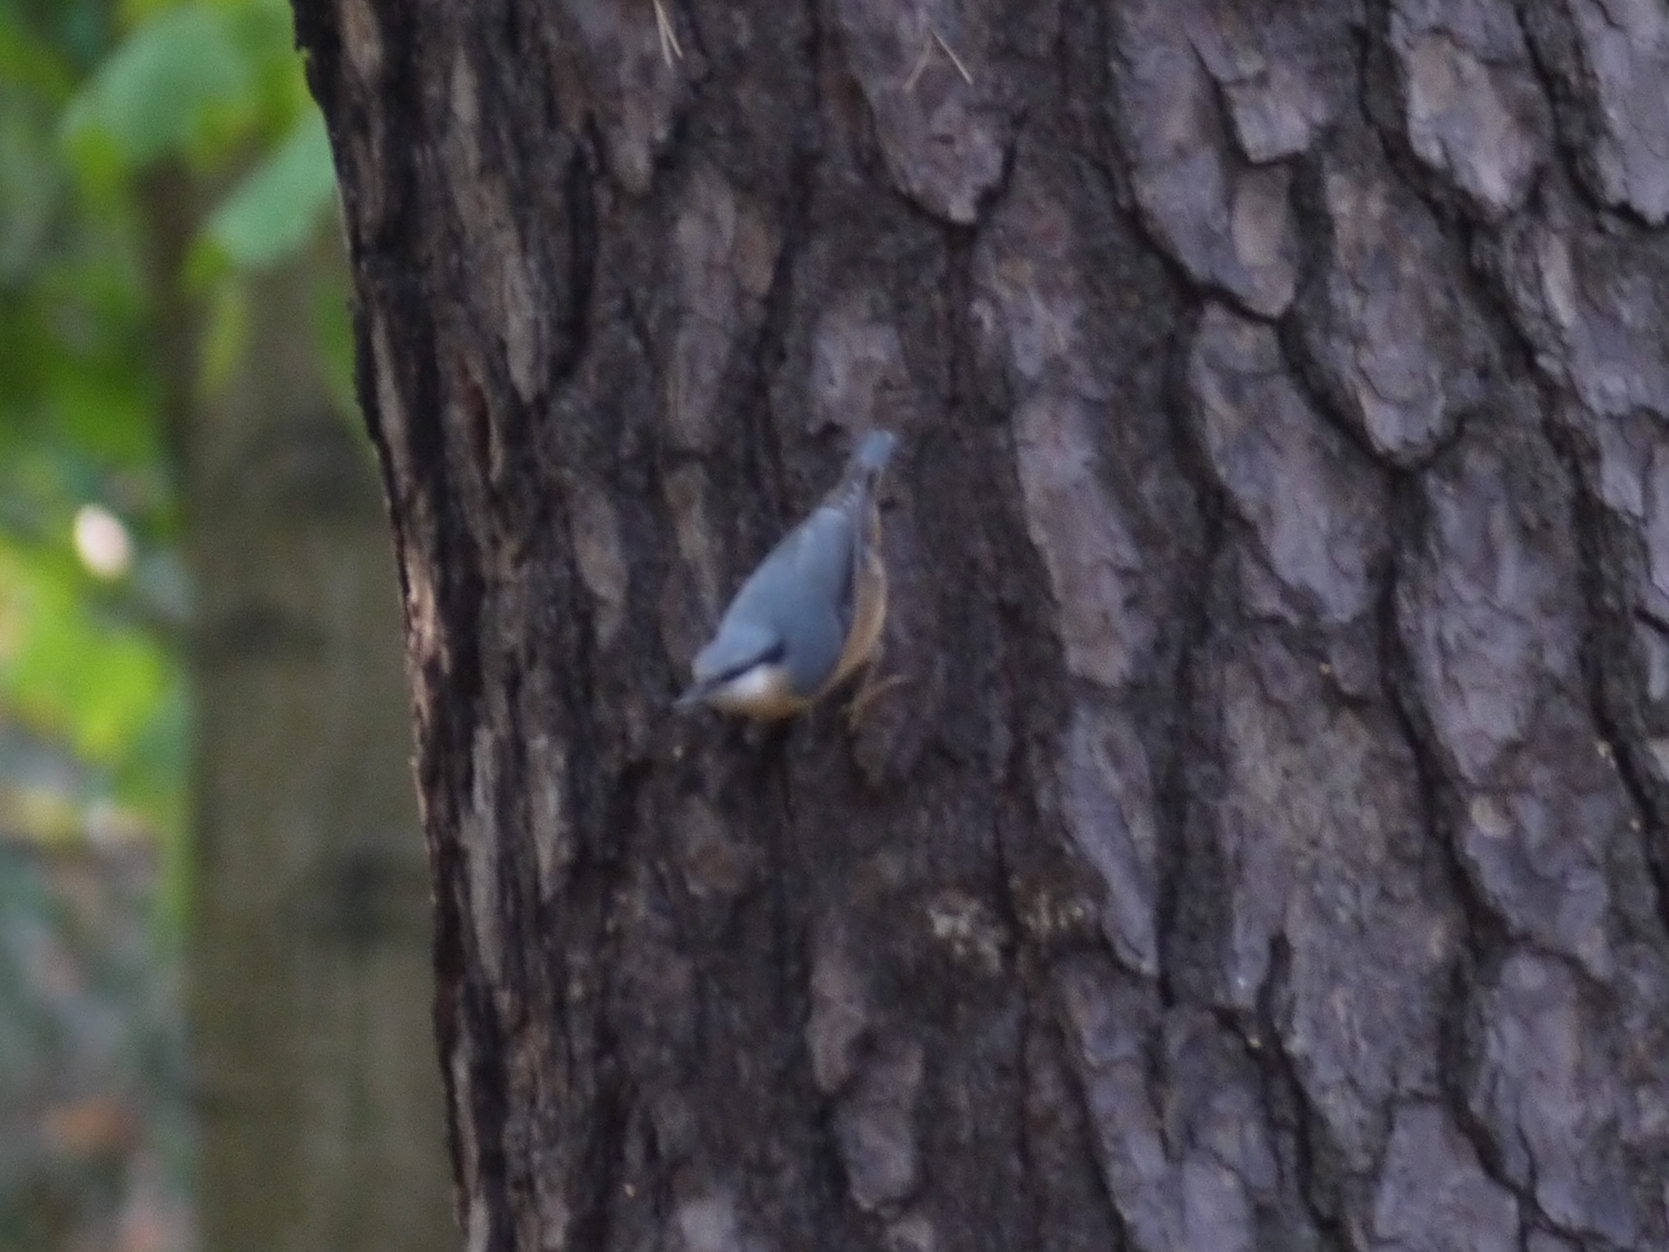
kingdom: Animalia
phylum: Chordata
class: Aves
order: Passeriformes
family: Sittidae
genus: Sitta
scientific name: Sitta europaea
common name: Eurasian nuthatch
